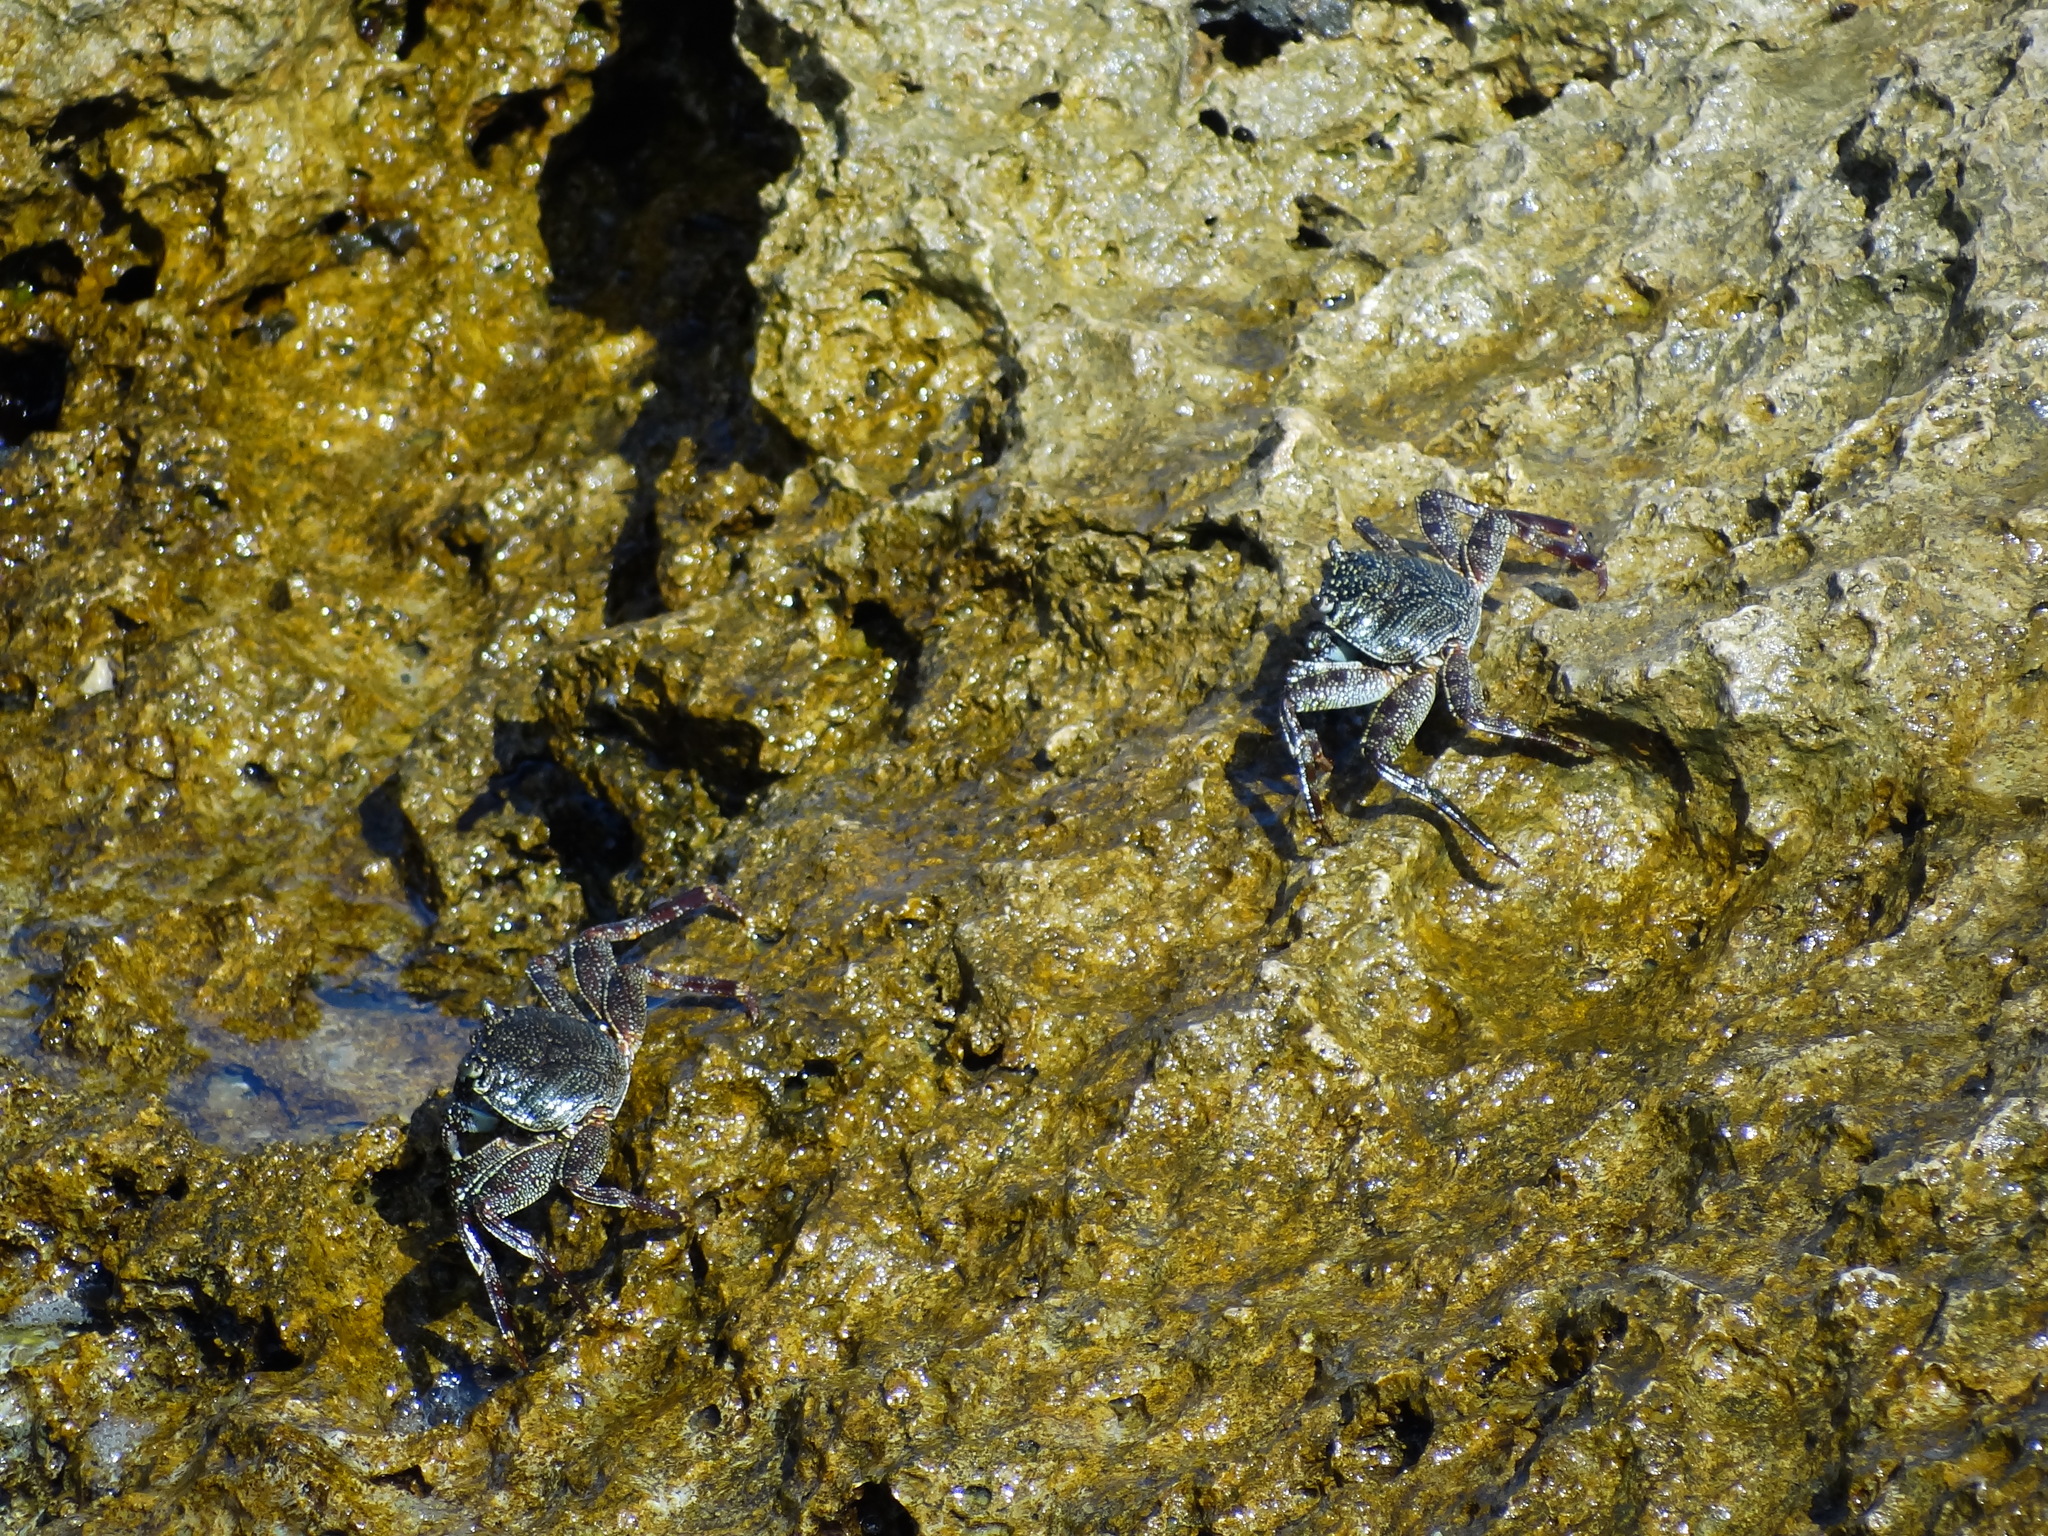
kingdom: Animalia
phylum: Arthropoda
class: Malacostraca
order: Decapoda
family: Grapsidae
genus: Grapsus
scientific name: Grapsus tenuicrustatus
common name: Natal lightfoot crab
